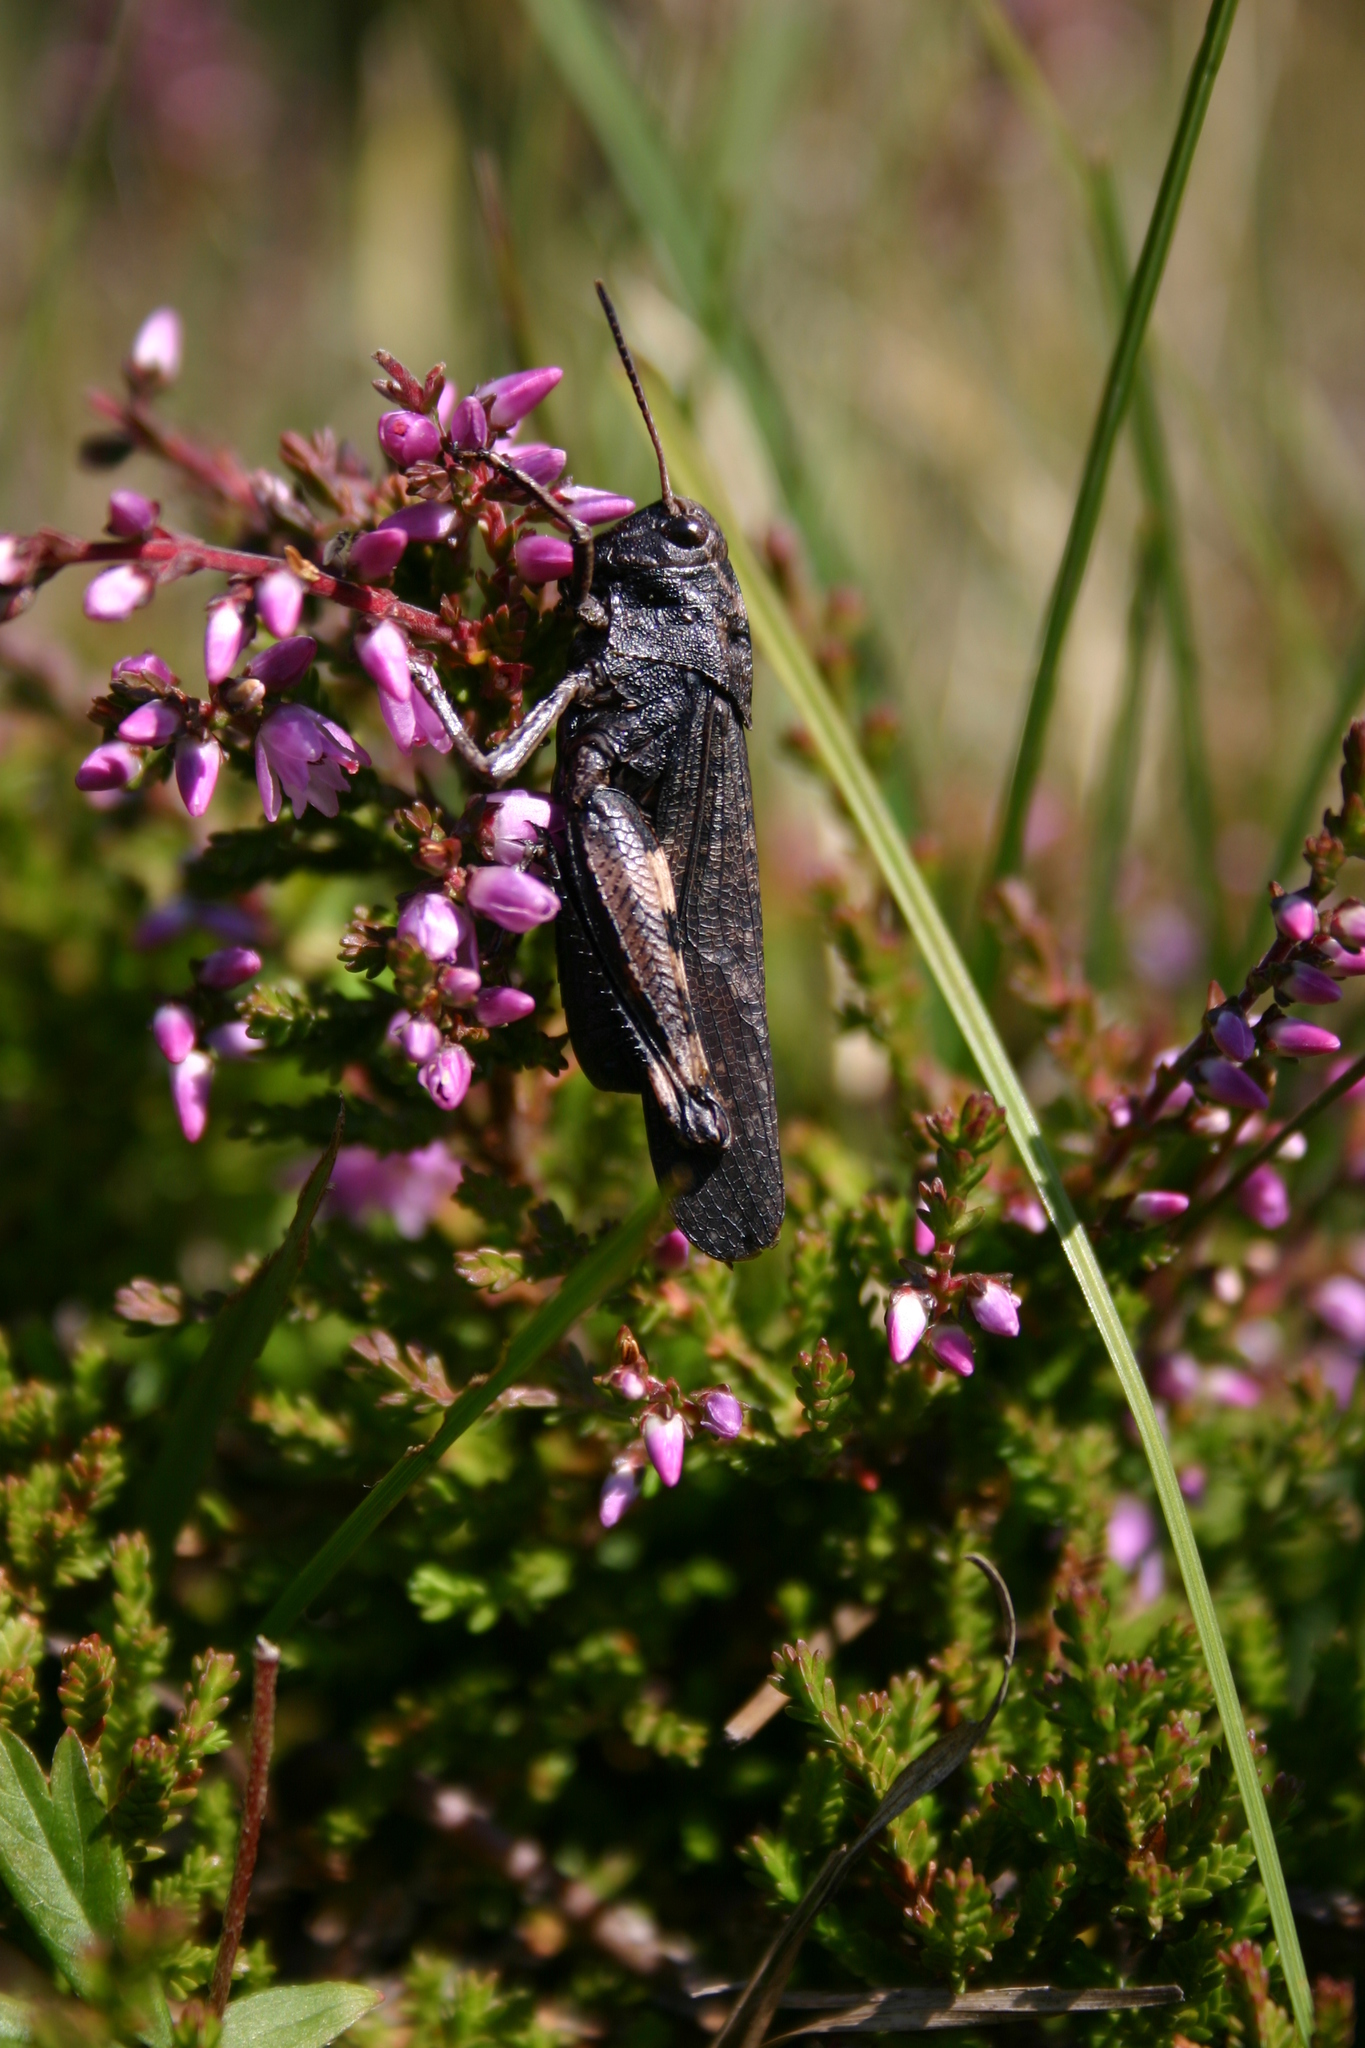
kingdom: Animalia
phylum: Arthropoda
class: Insecta
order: Orthoptera
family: Acrididae
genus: Psophus
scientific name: Psophus stridulus
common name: Rattle grasshopper
